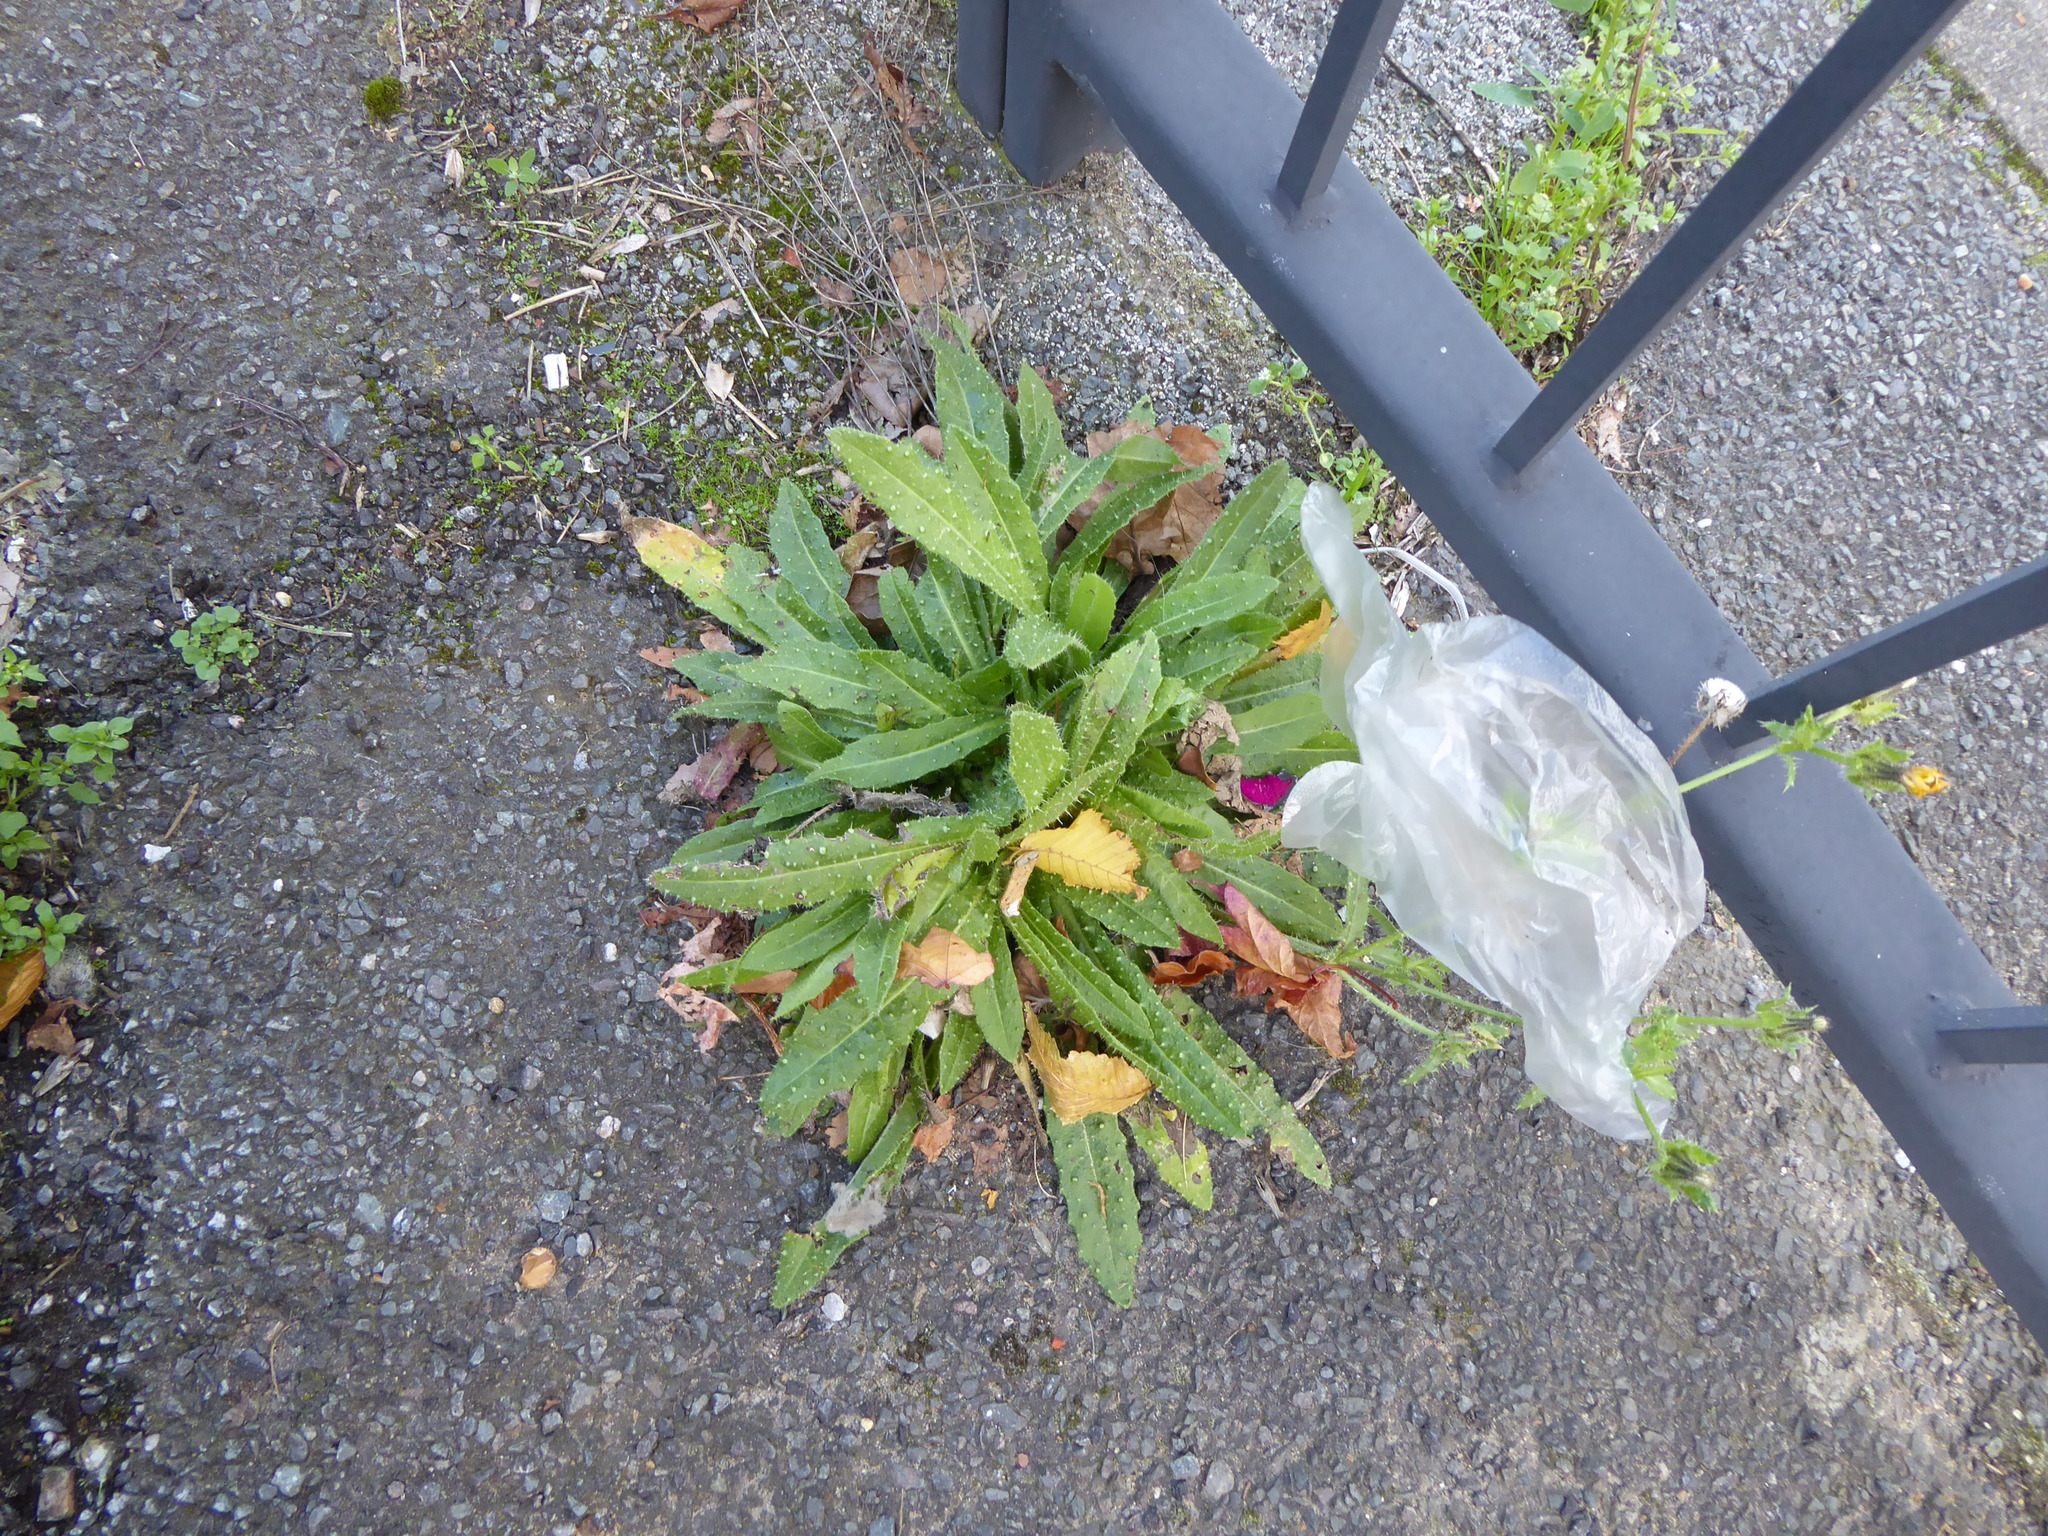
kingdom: Plantae
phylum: Tracheophyta
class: Magnoliopsida
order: Asterales
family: Asteraceae
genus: Helminthotheca
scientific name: Helminthotheca echioides
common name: Ox-tongue
